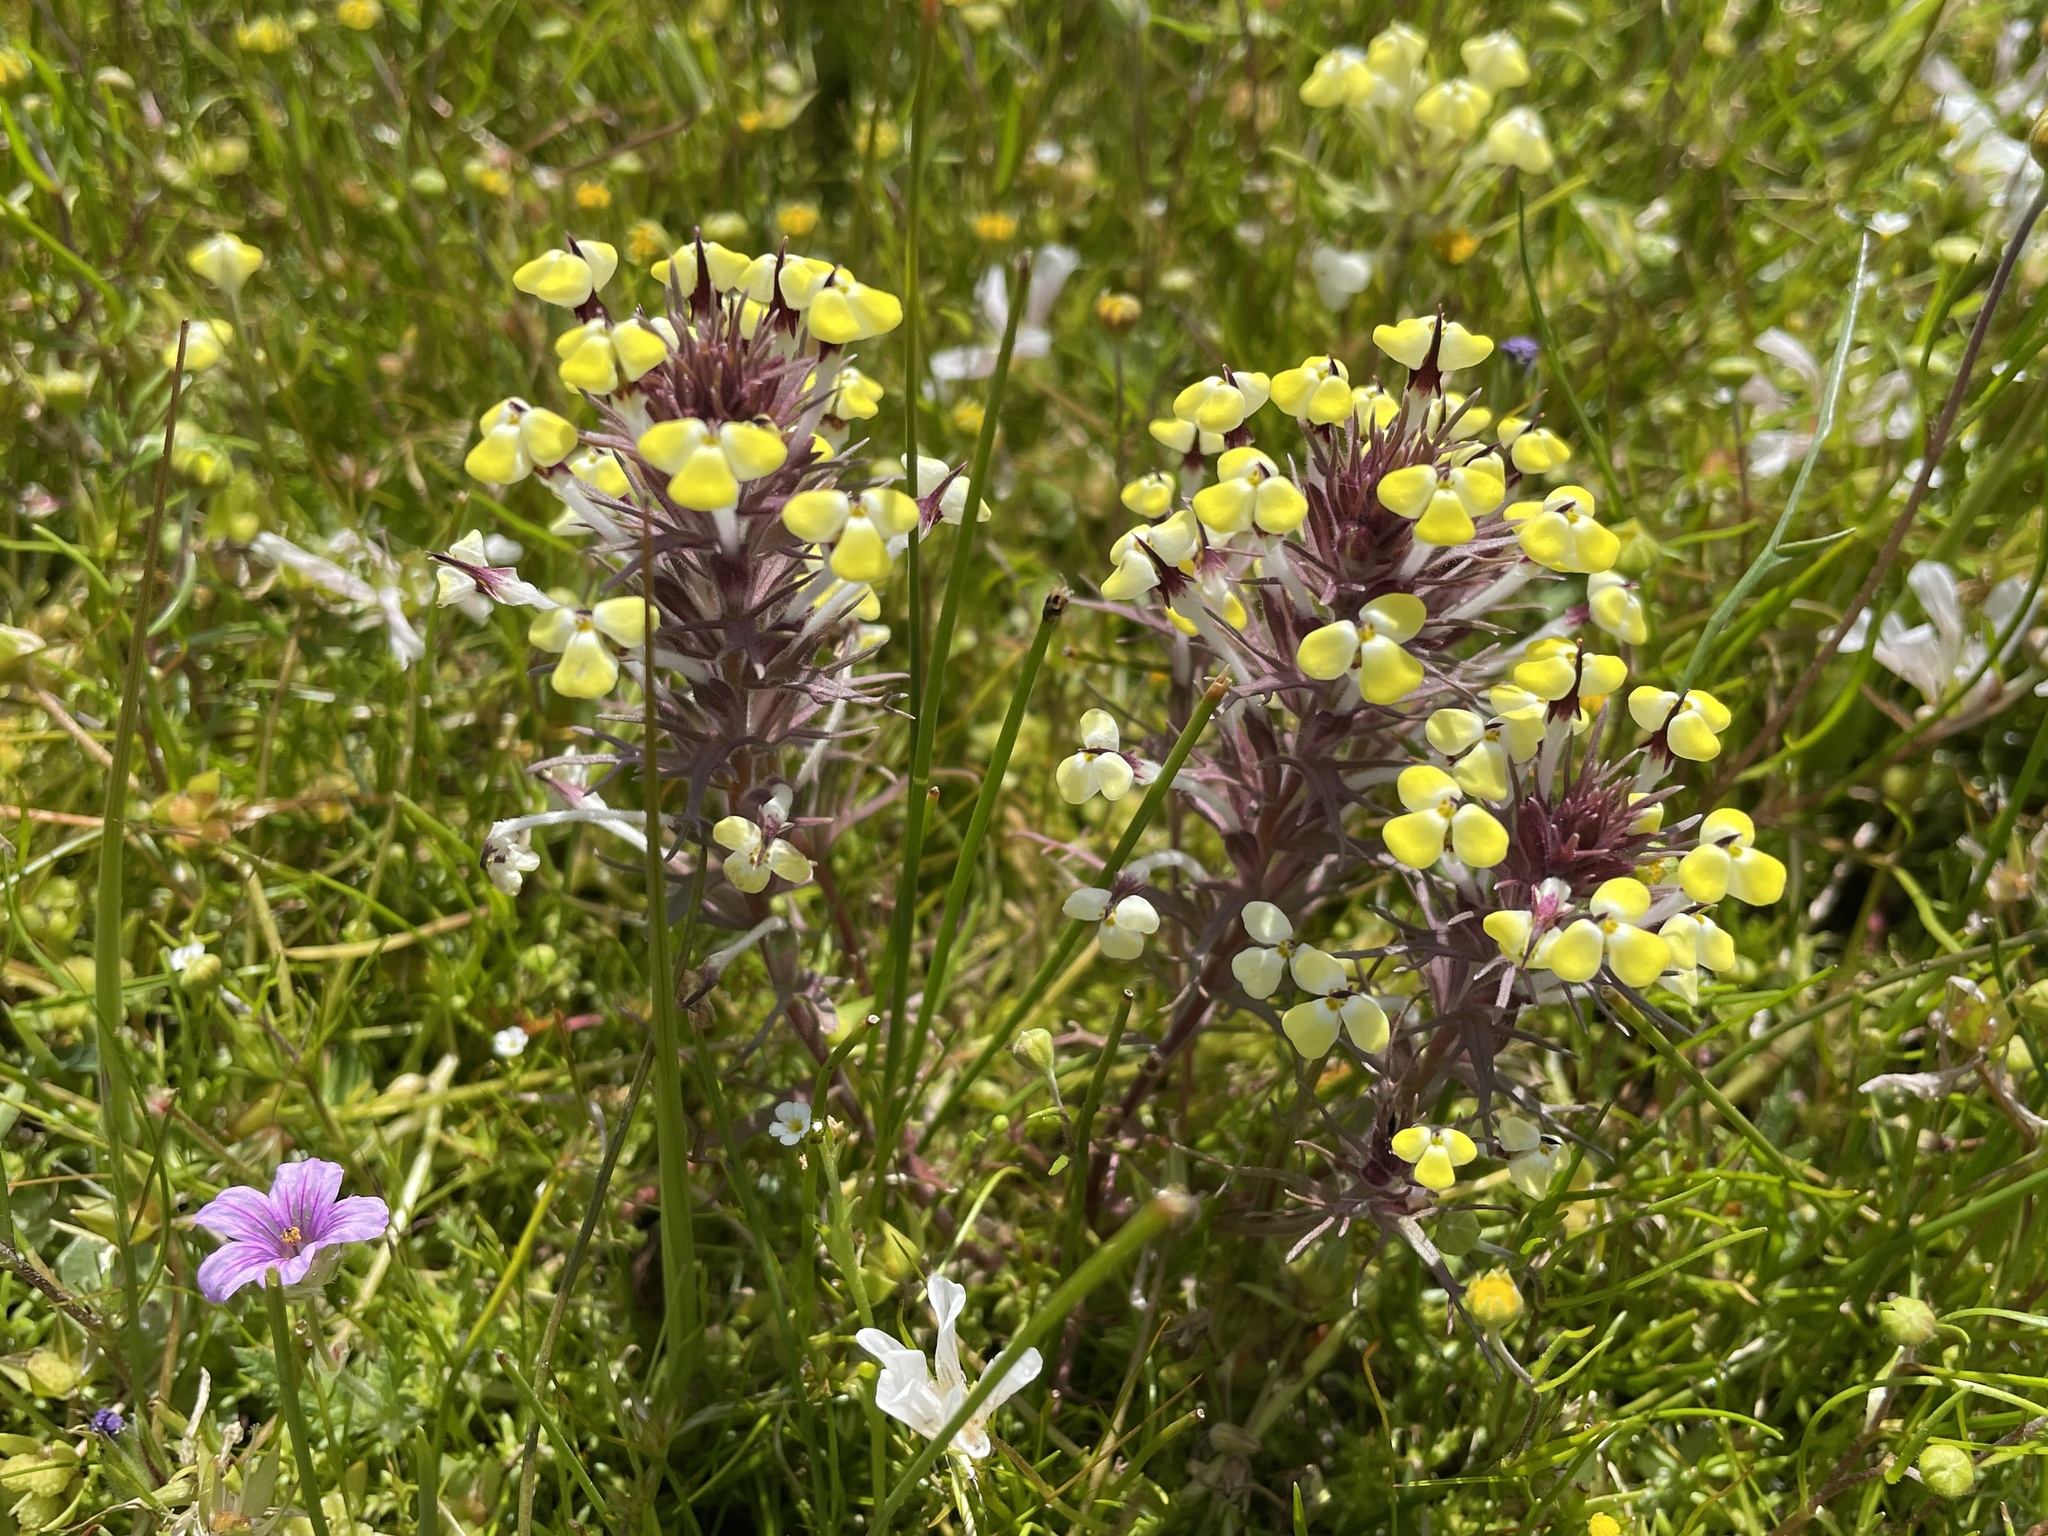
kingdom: Plantae
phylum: Tracheophyta
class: Magnoliopsida
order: Lamiales
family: Orobanchaceae
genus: Triphysaria
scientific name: Triphysaria eriantha
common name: Johnny-tuck
